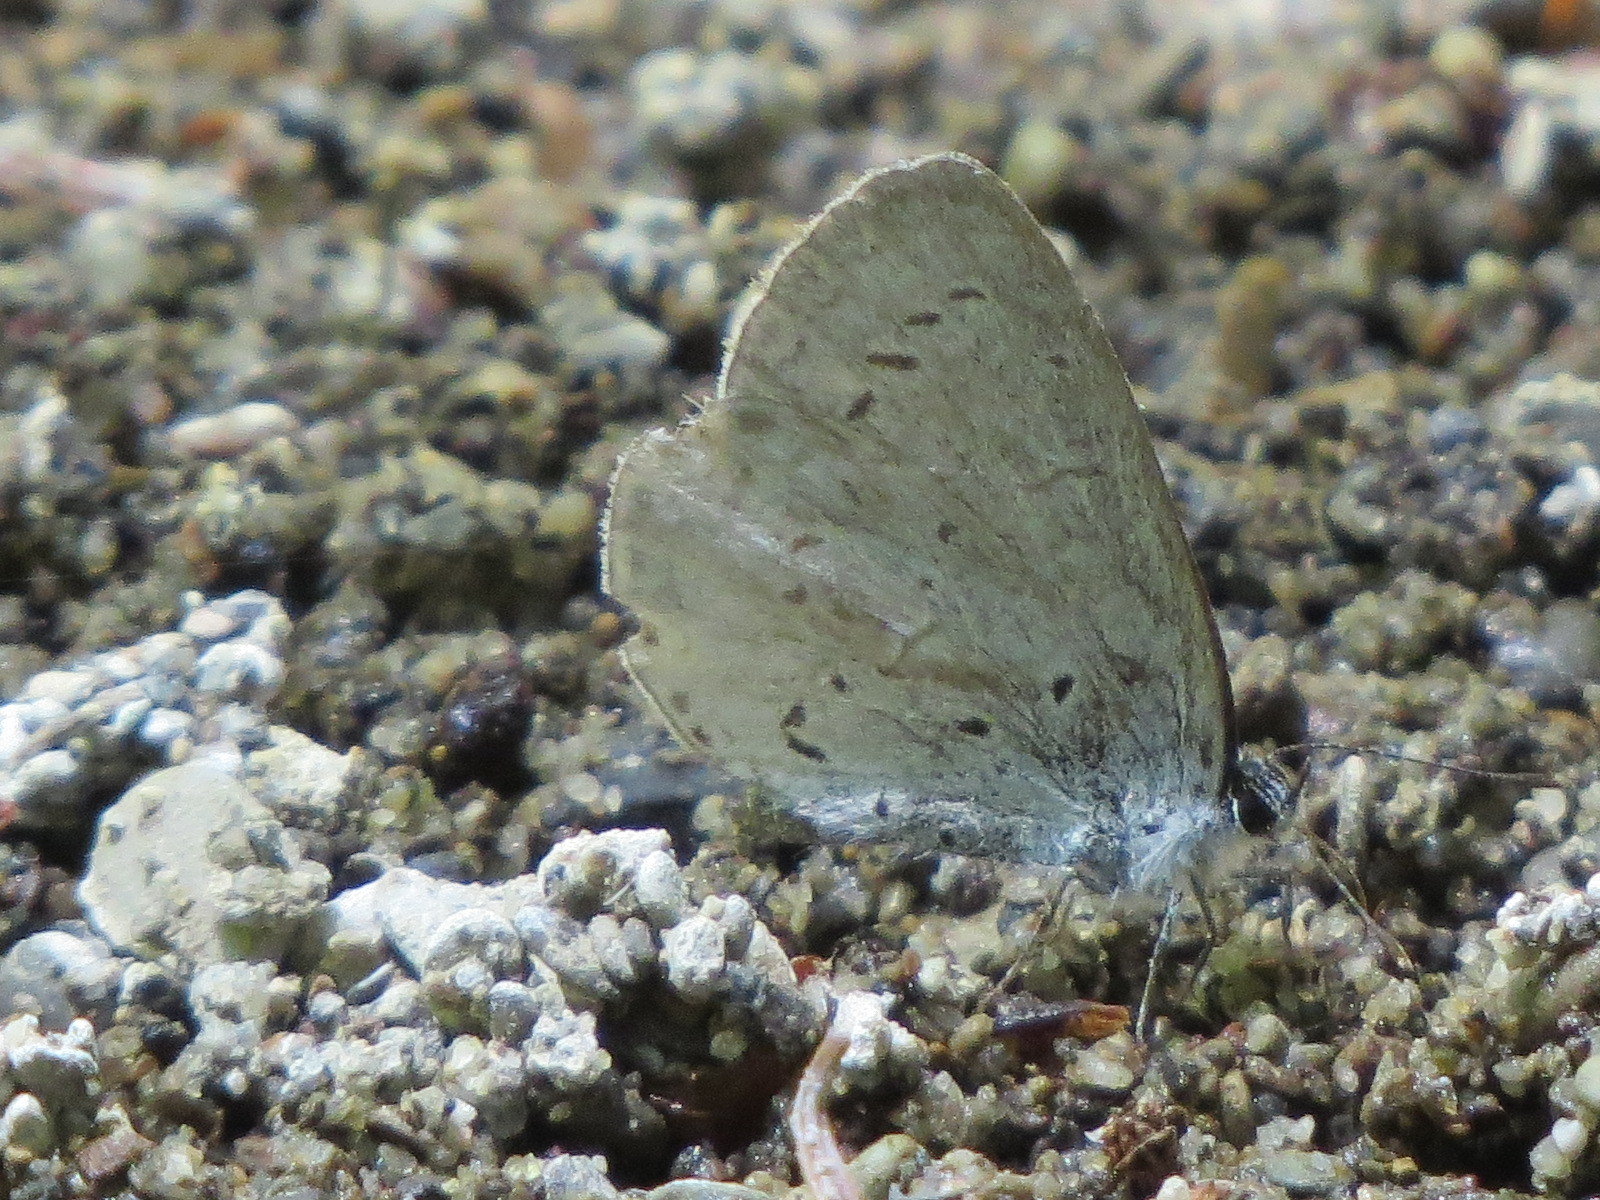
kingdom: Animalia
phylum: Arthropoda
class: Insecta
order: Lepidoptera
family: Lycaenidae
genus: Celastrina
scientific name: Celastrina ladon
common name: Spring azure
